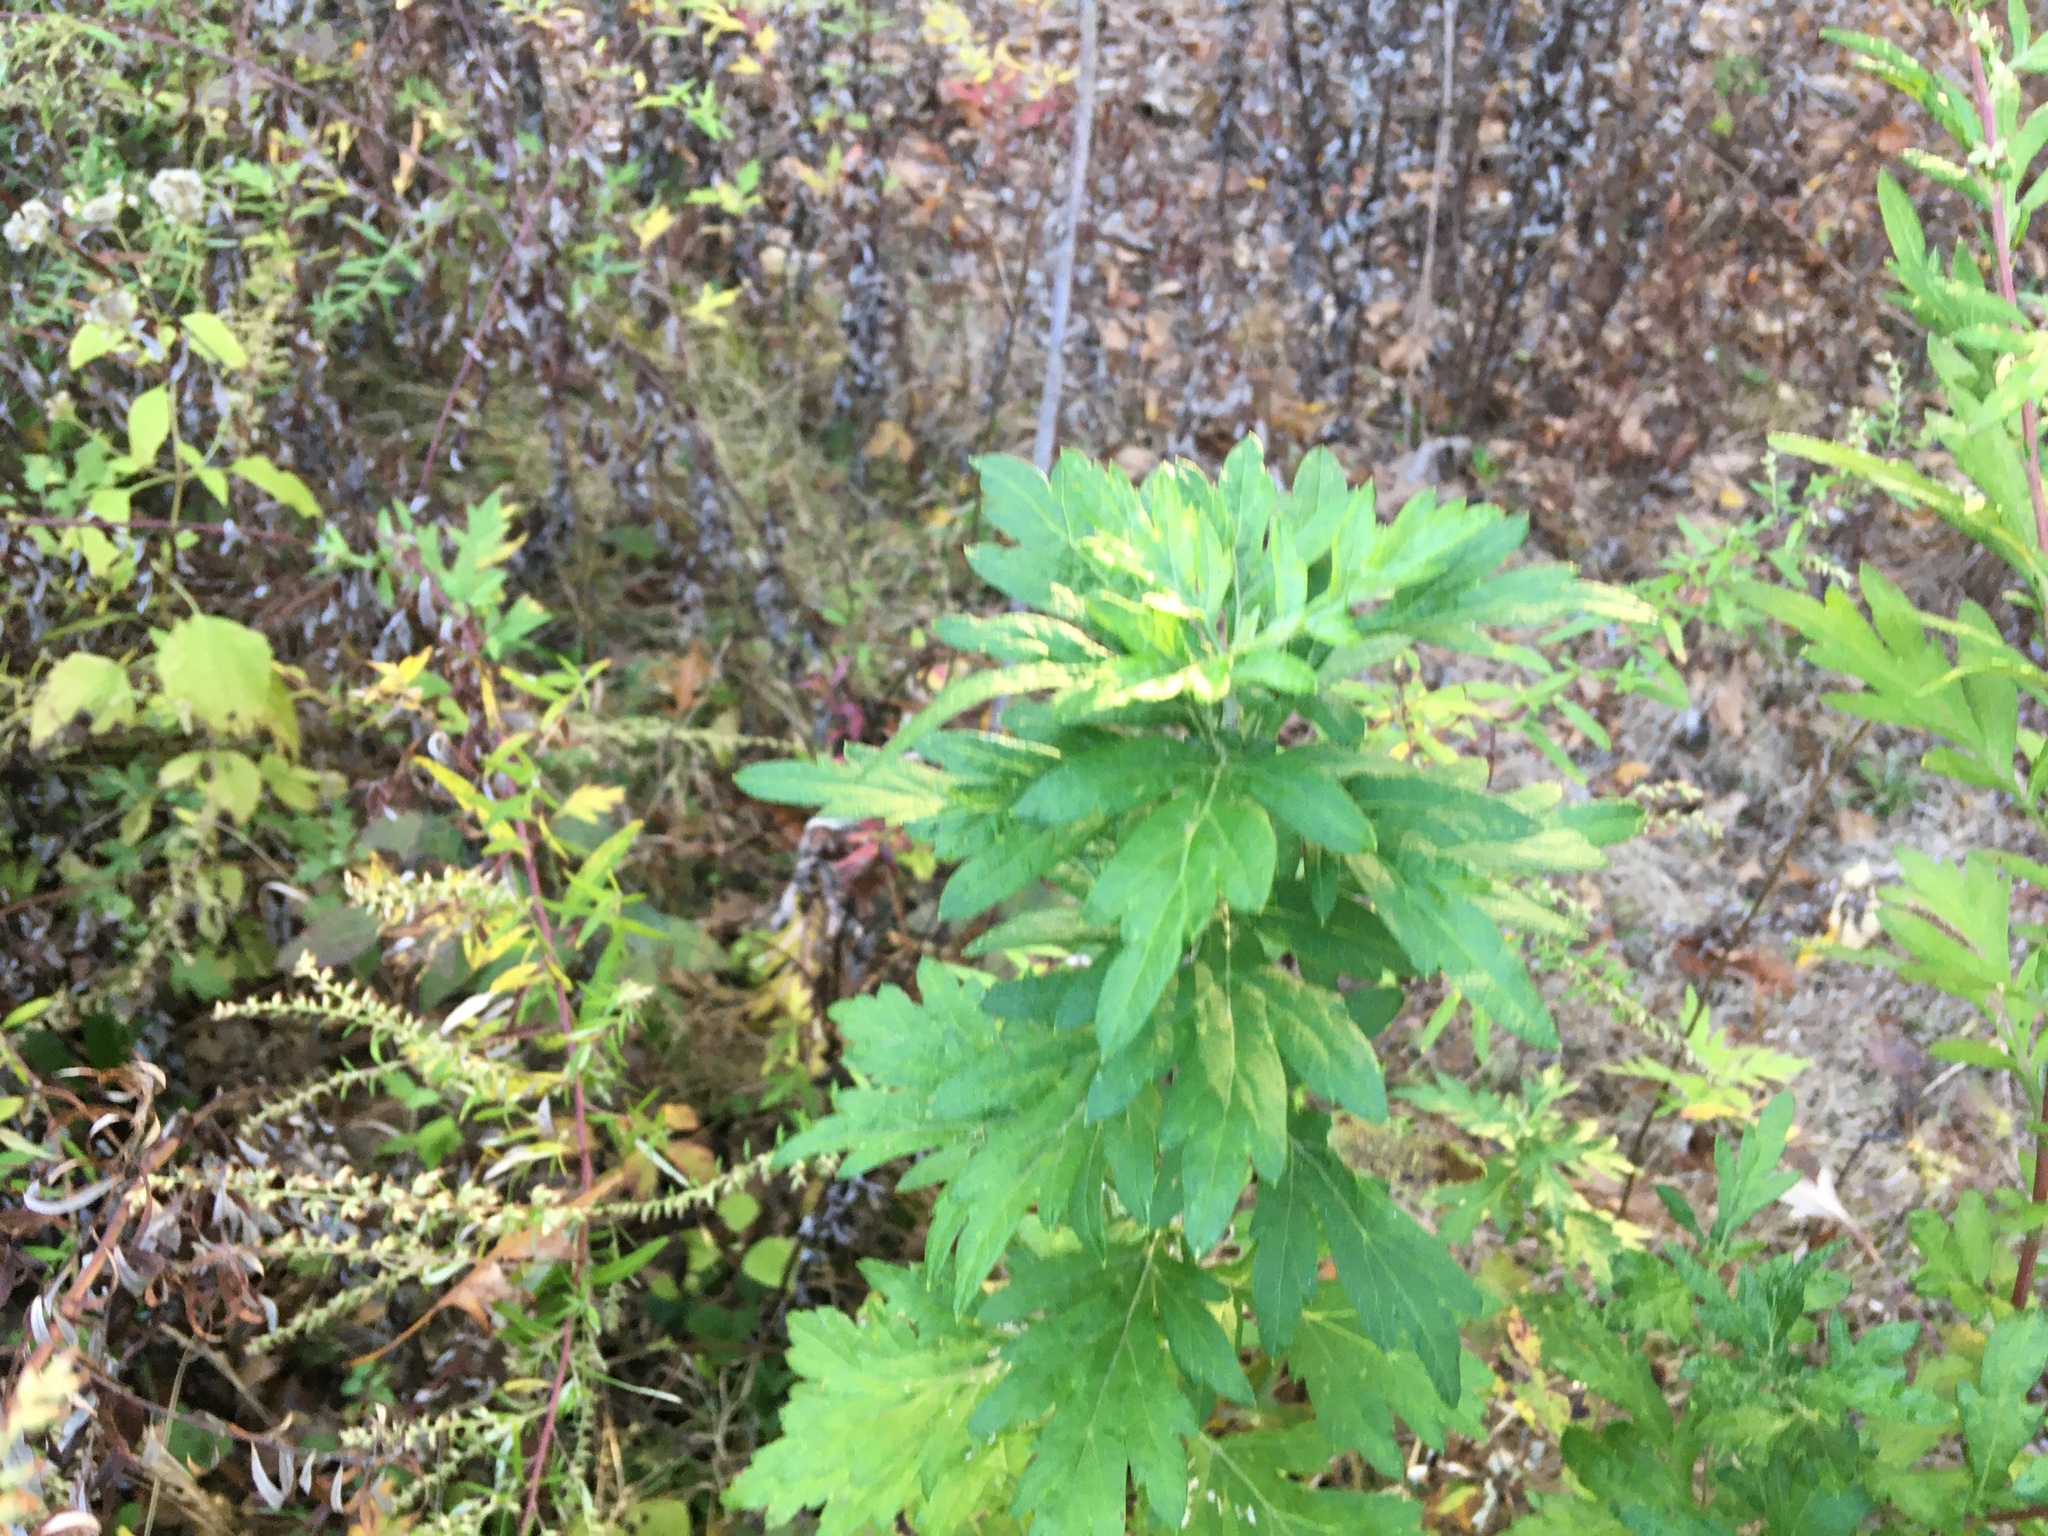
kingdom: Plantae
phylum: Tracheophyta
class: Magnoliopsida
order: Asterales
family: Asteraceae
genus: Artemisia
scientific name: Artemisia vulgaris
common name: Mugwort
